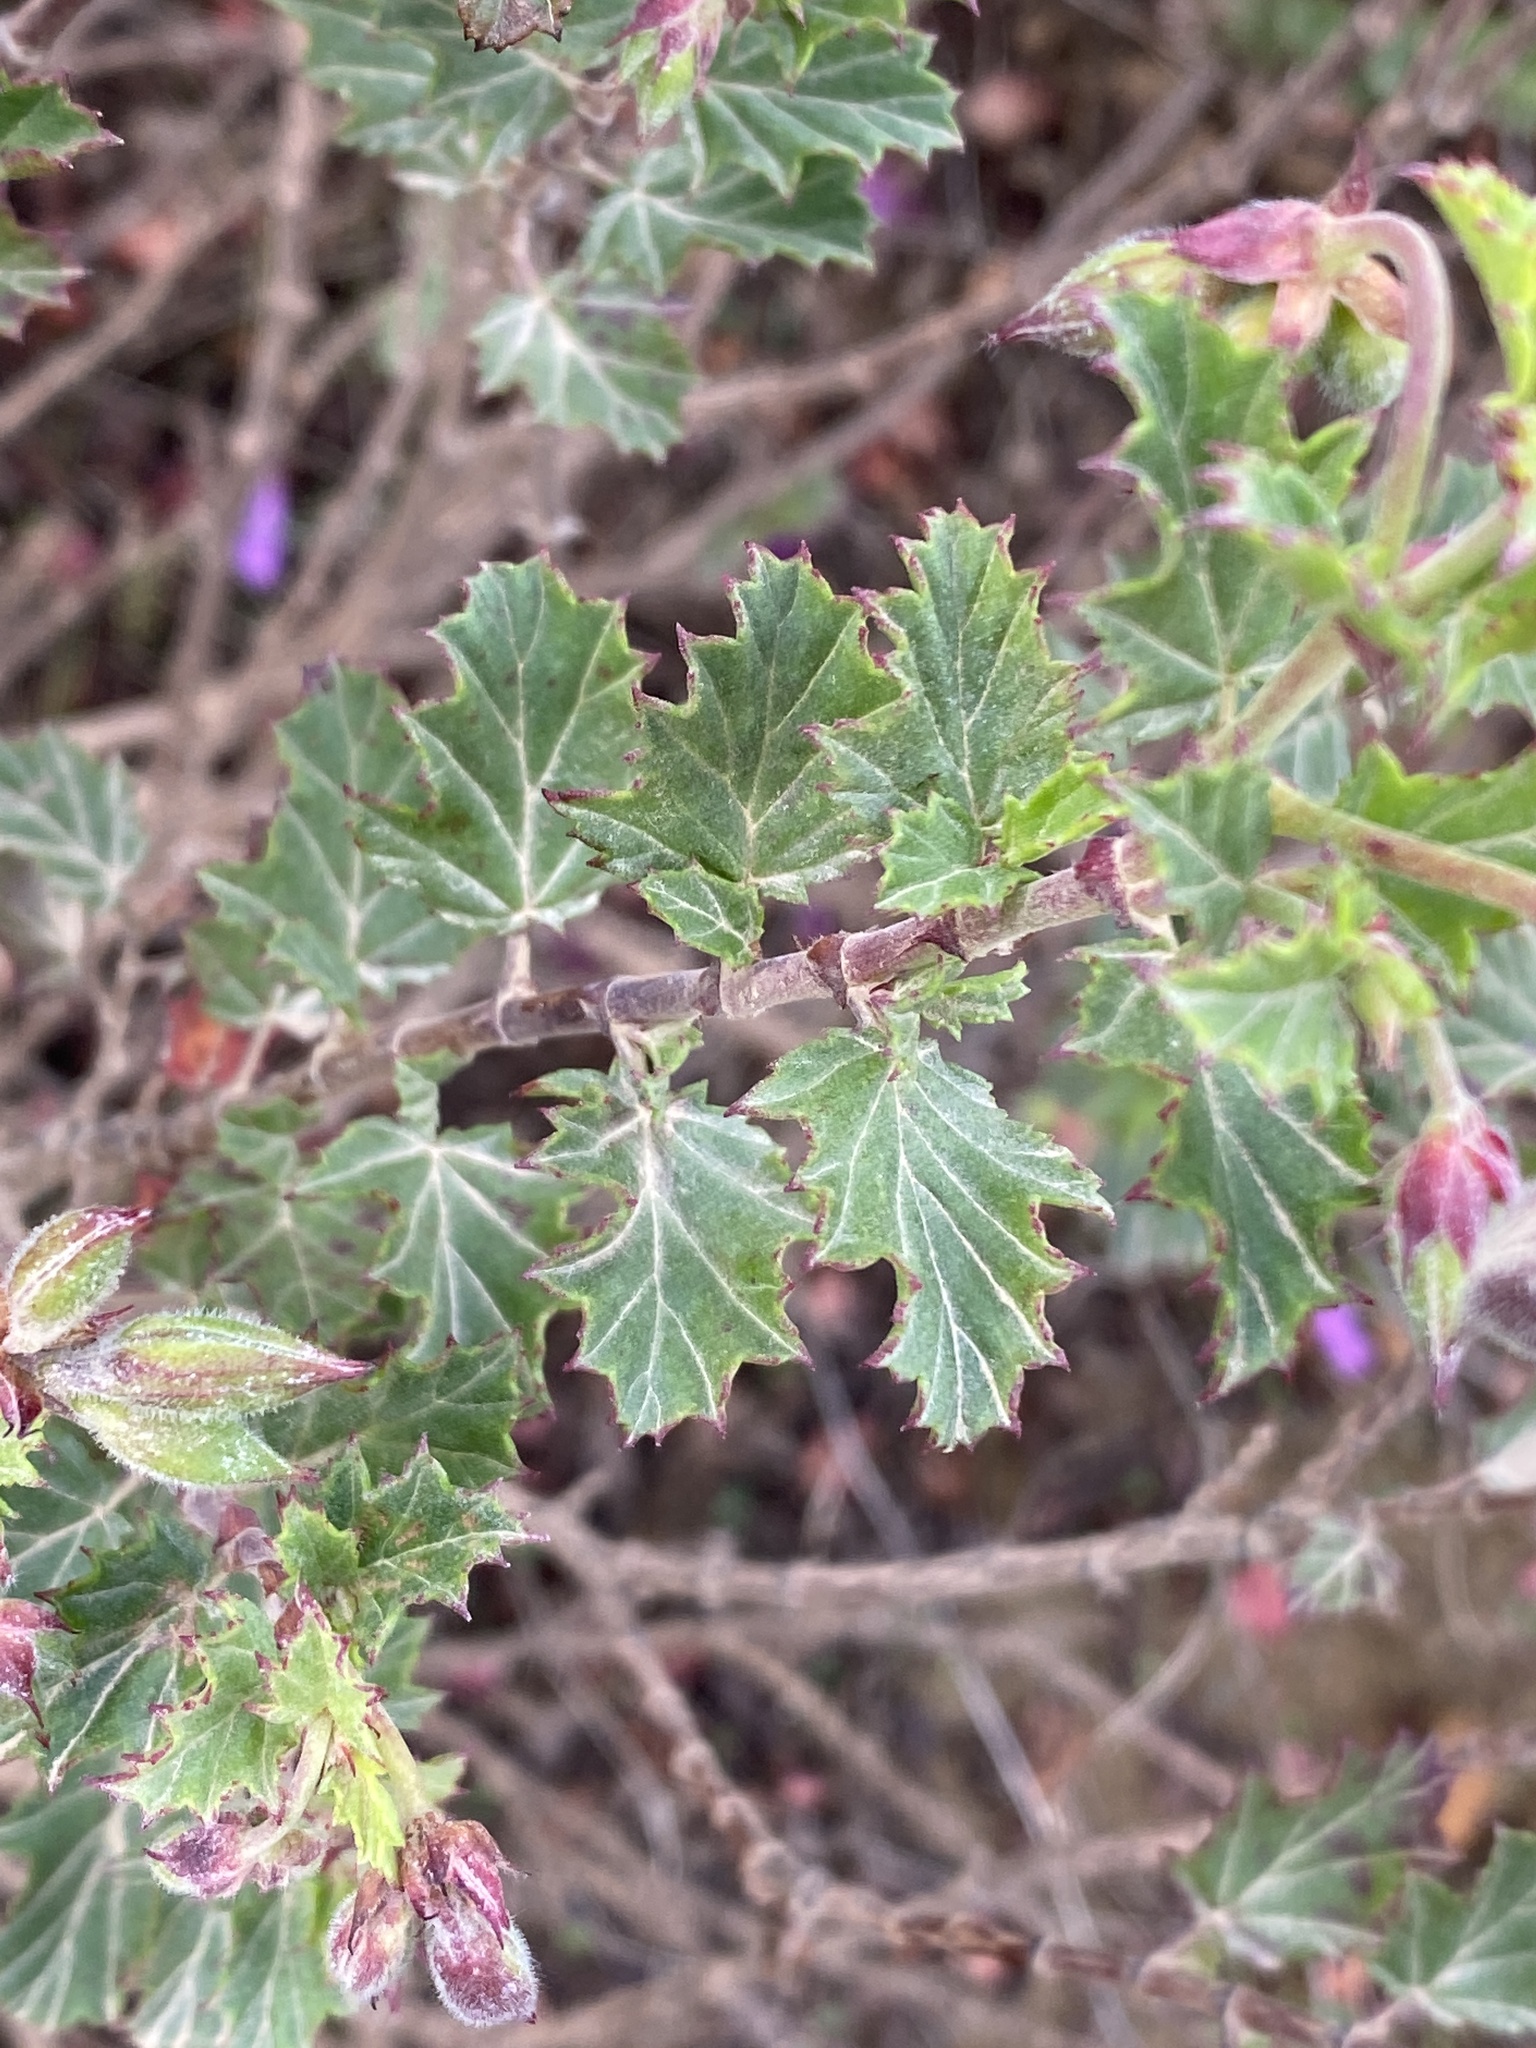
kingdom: Plantae
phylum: Tracheophyta
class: Magnoliopsida
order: Geraniales
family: Geraniaceae
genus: Pelargonium
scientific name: Pelargonium betulinum
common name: Birch-leaf pelargonium
